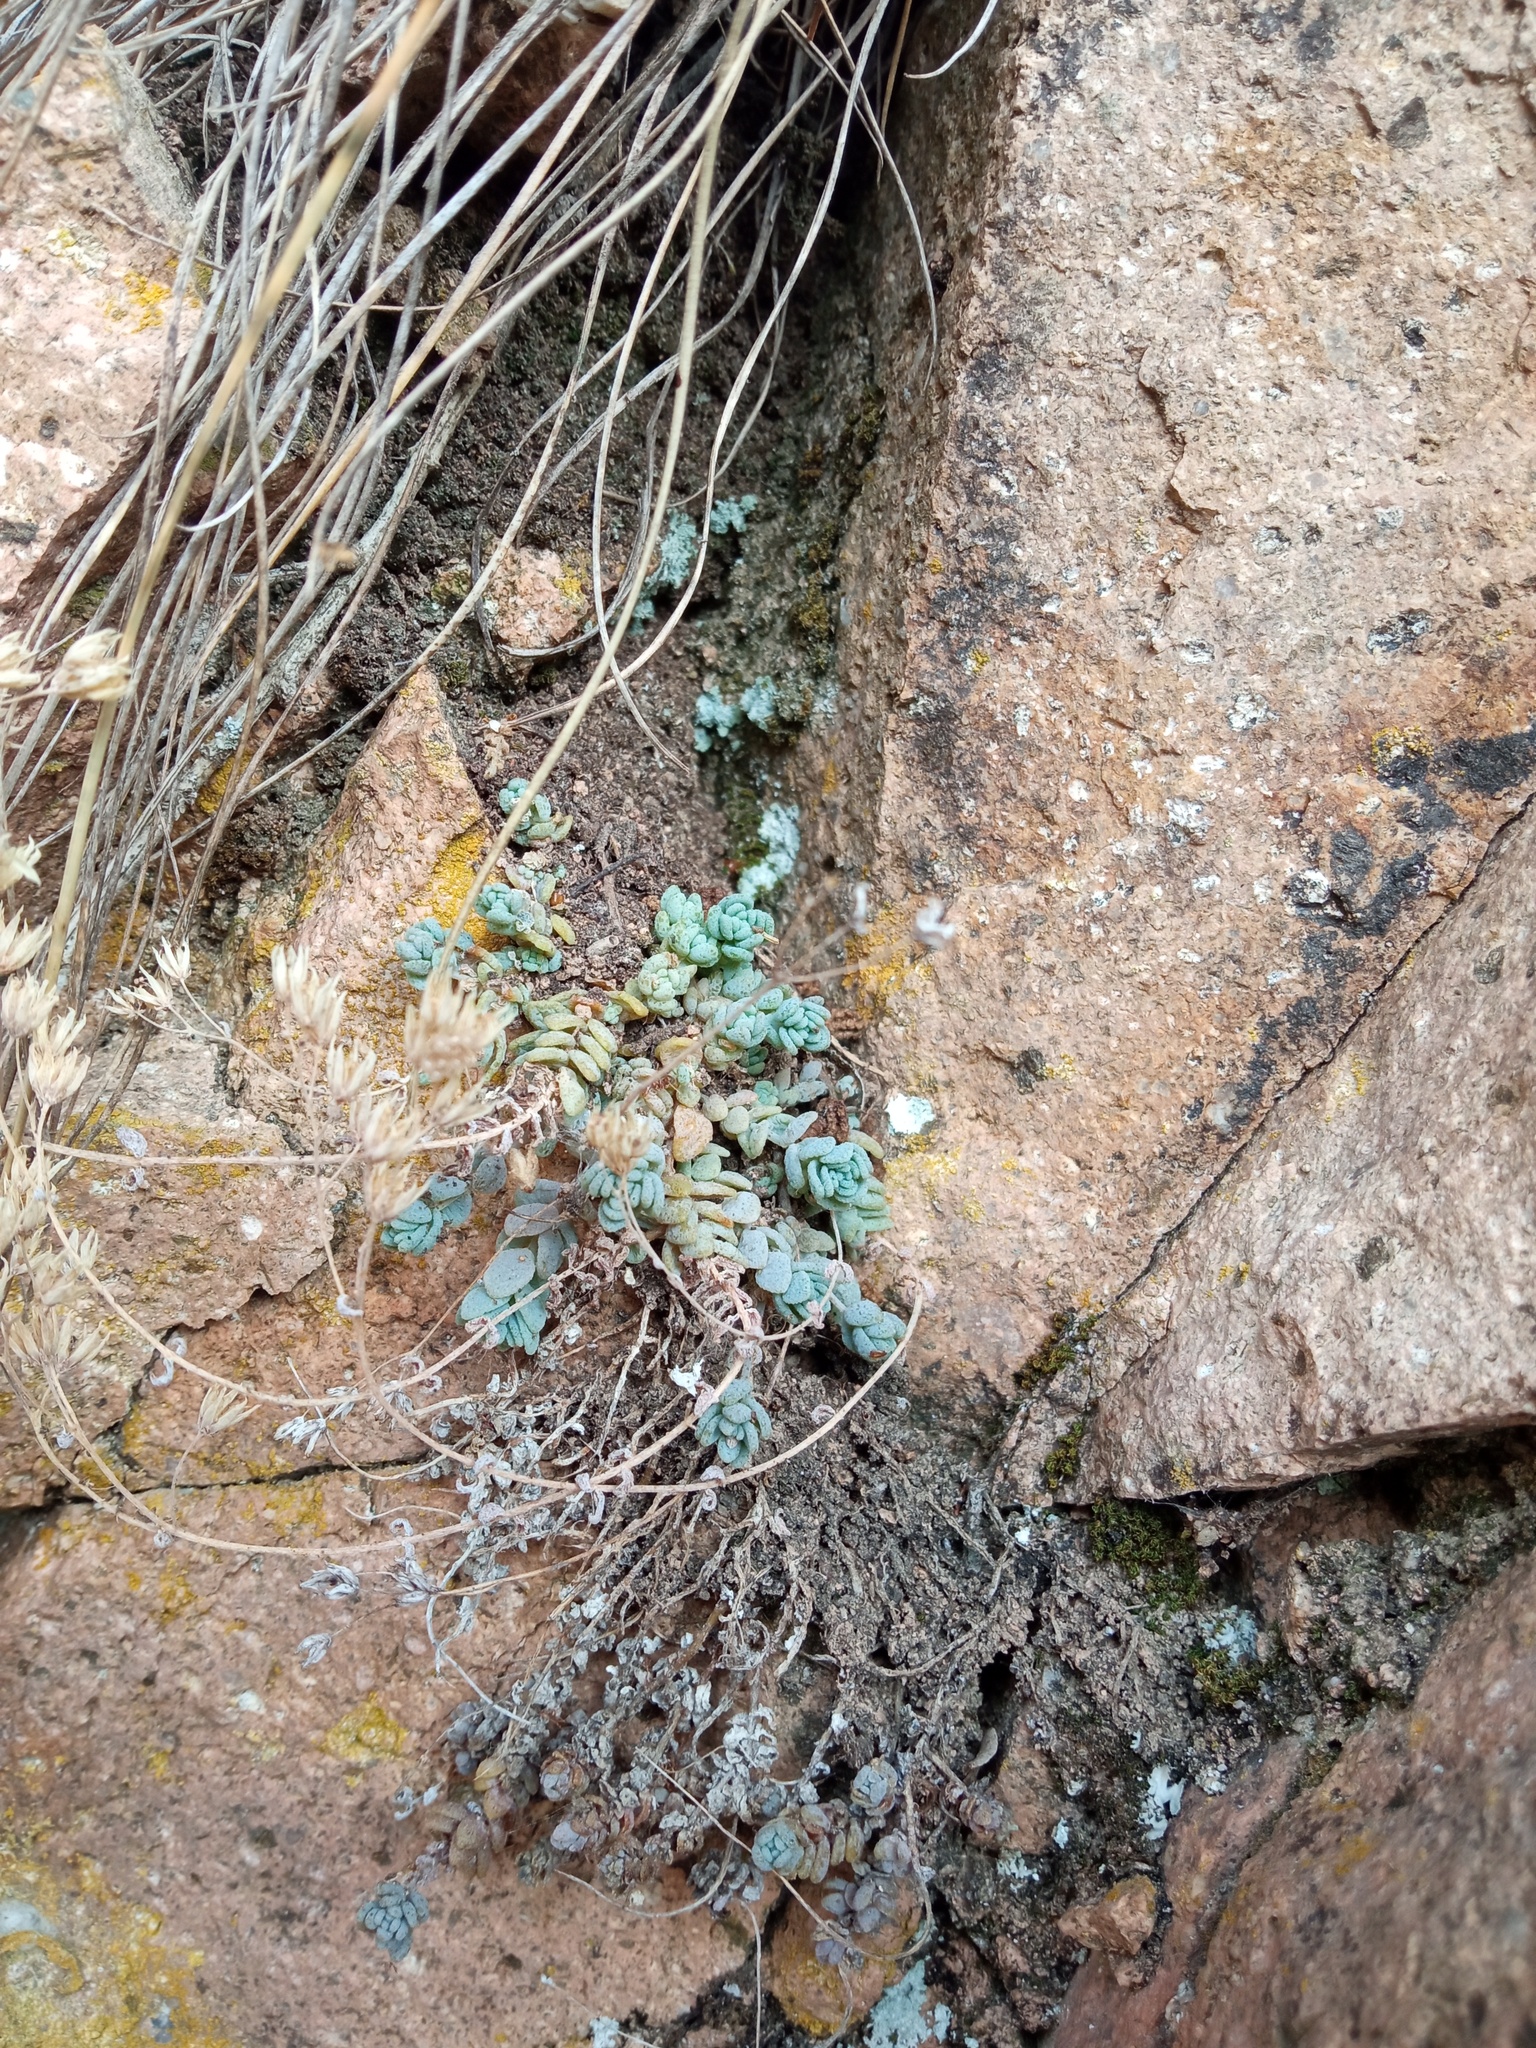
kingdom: Plantae
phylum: Tracheophyta
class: Magnoliopsida
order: Saxifragales
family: Crassulaceae
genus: Sedum
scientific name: Sedum dasyphyllum
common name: Thick-leaf stonecrop
